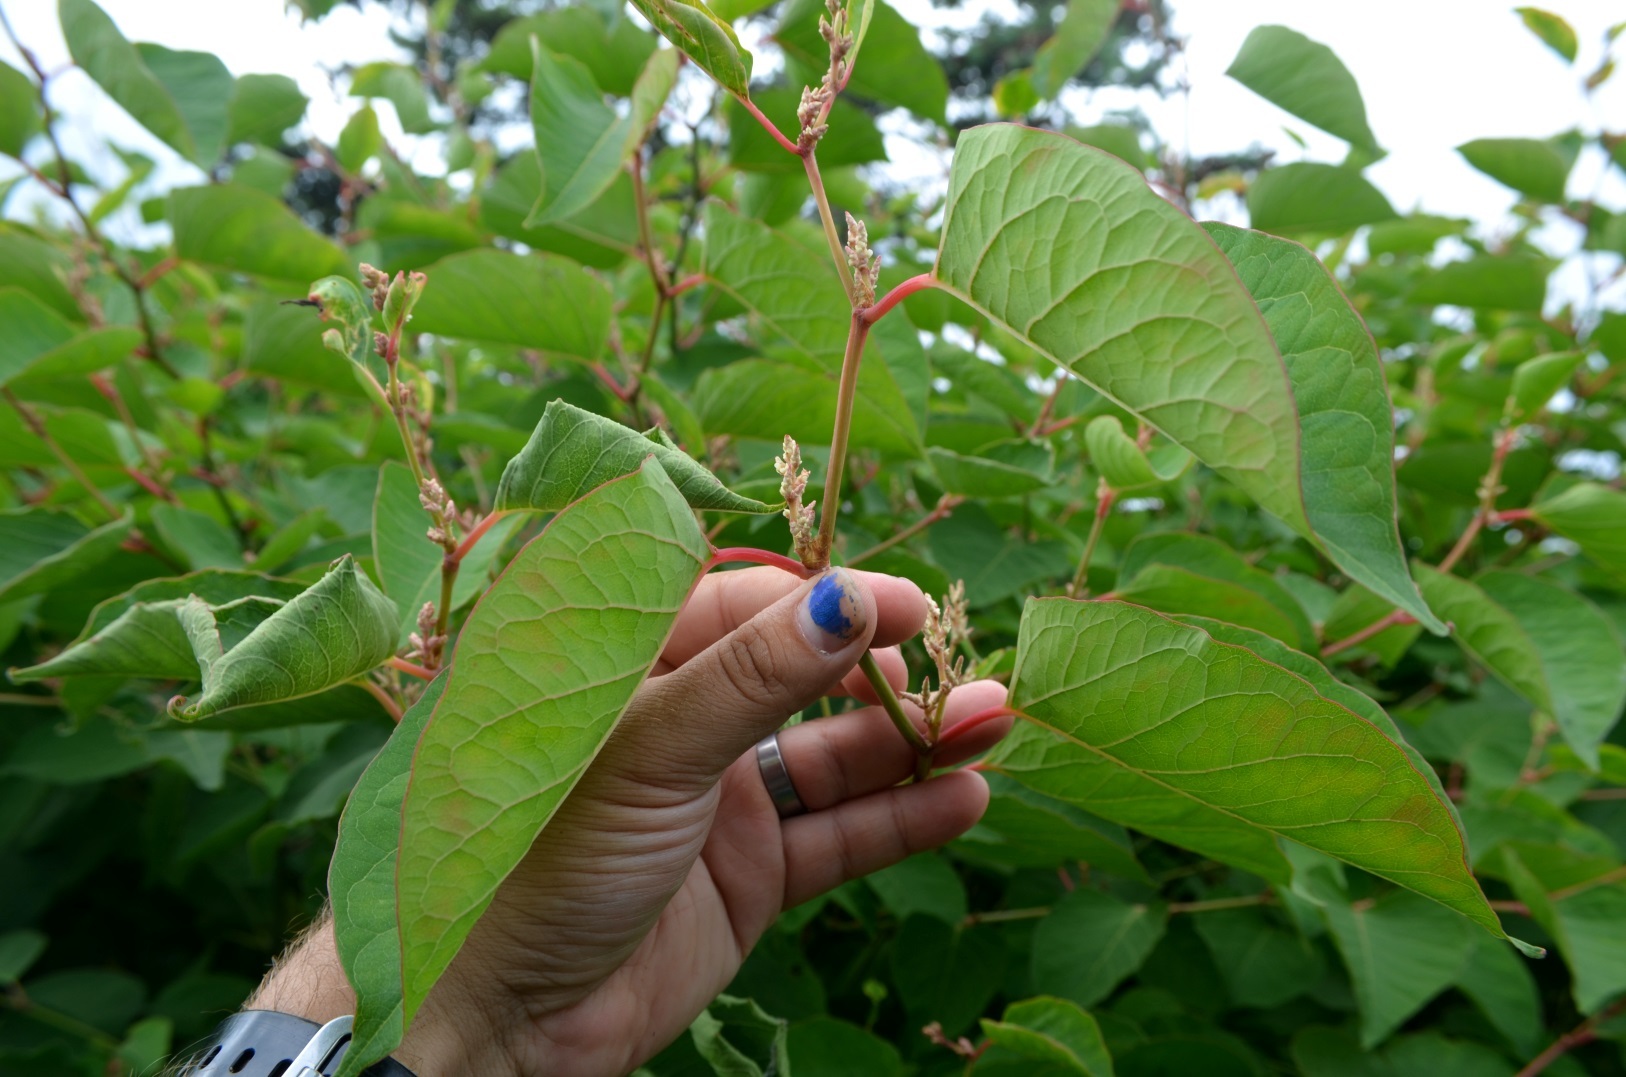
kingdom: Plantae
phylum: Tracheophyta
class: Magnoliopsida
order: Caryophyllales
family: Polygonaceae
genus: Reynoutria
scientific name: Reynoutria japonica
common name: Japanese knotweed
